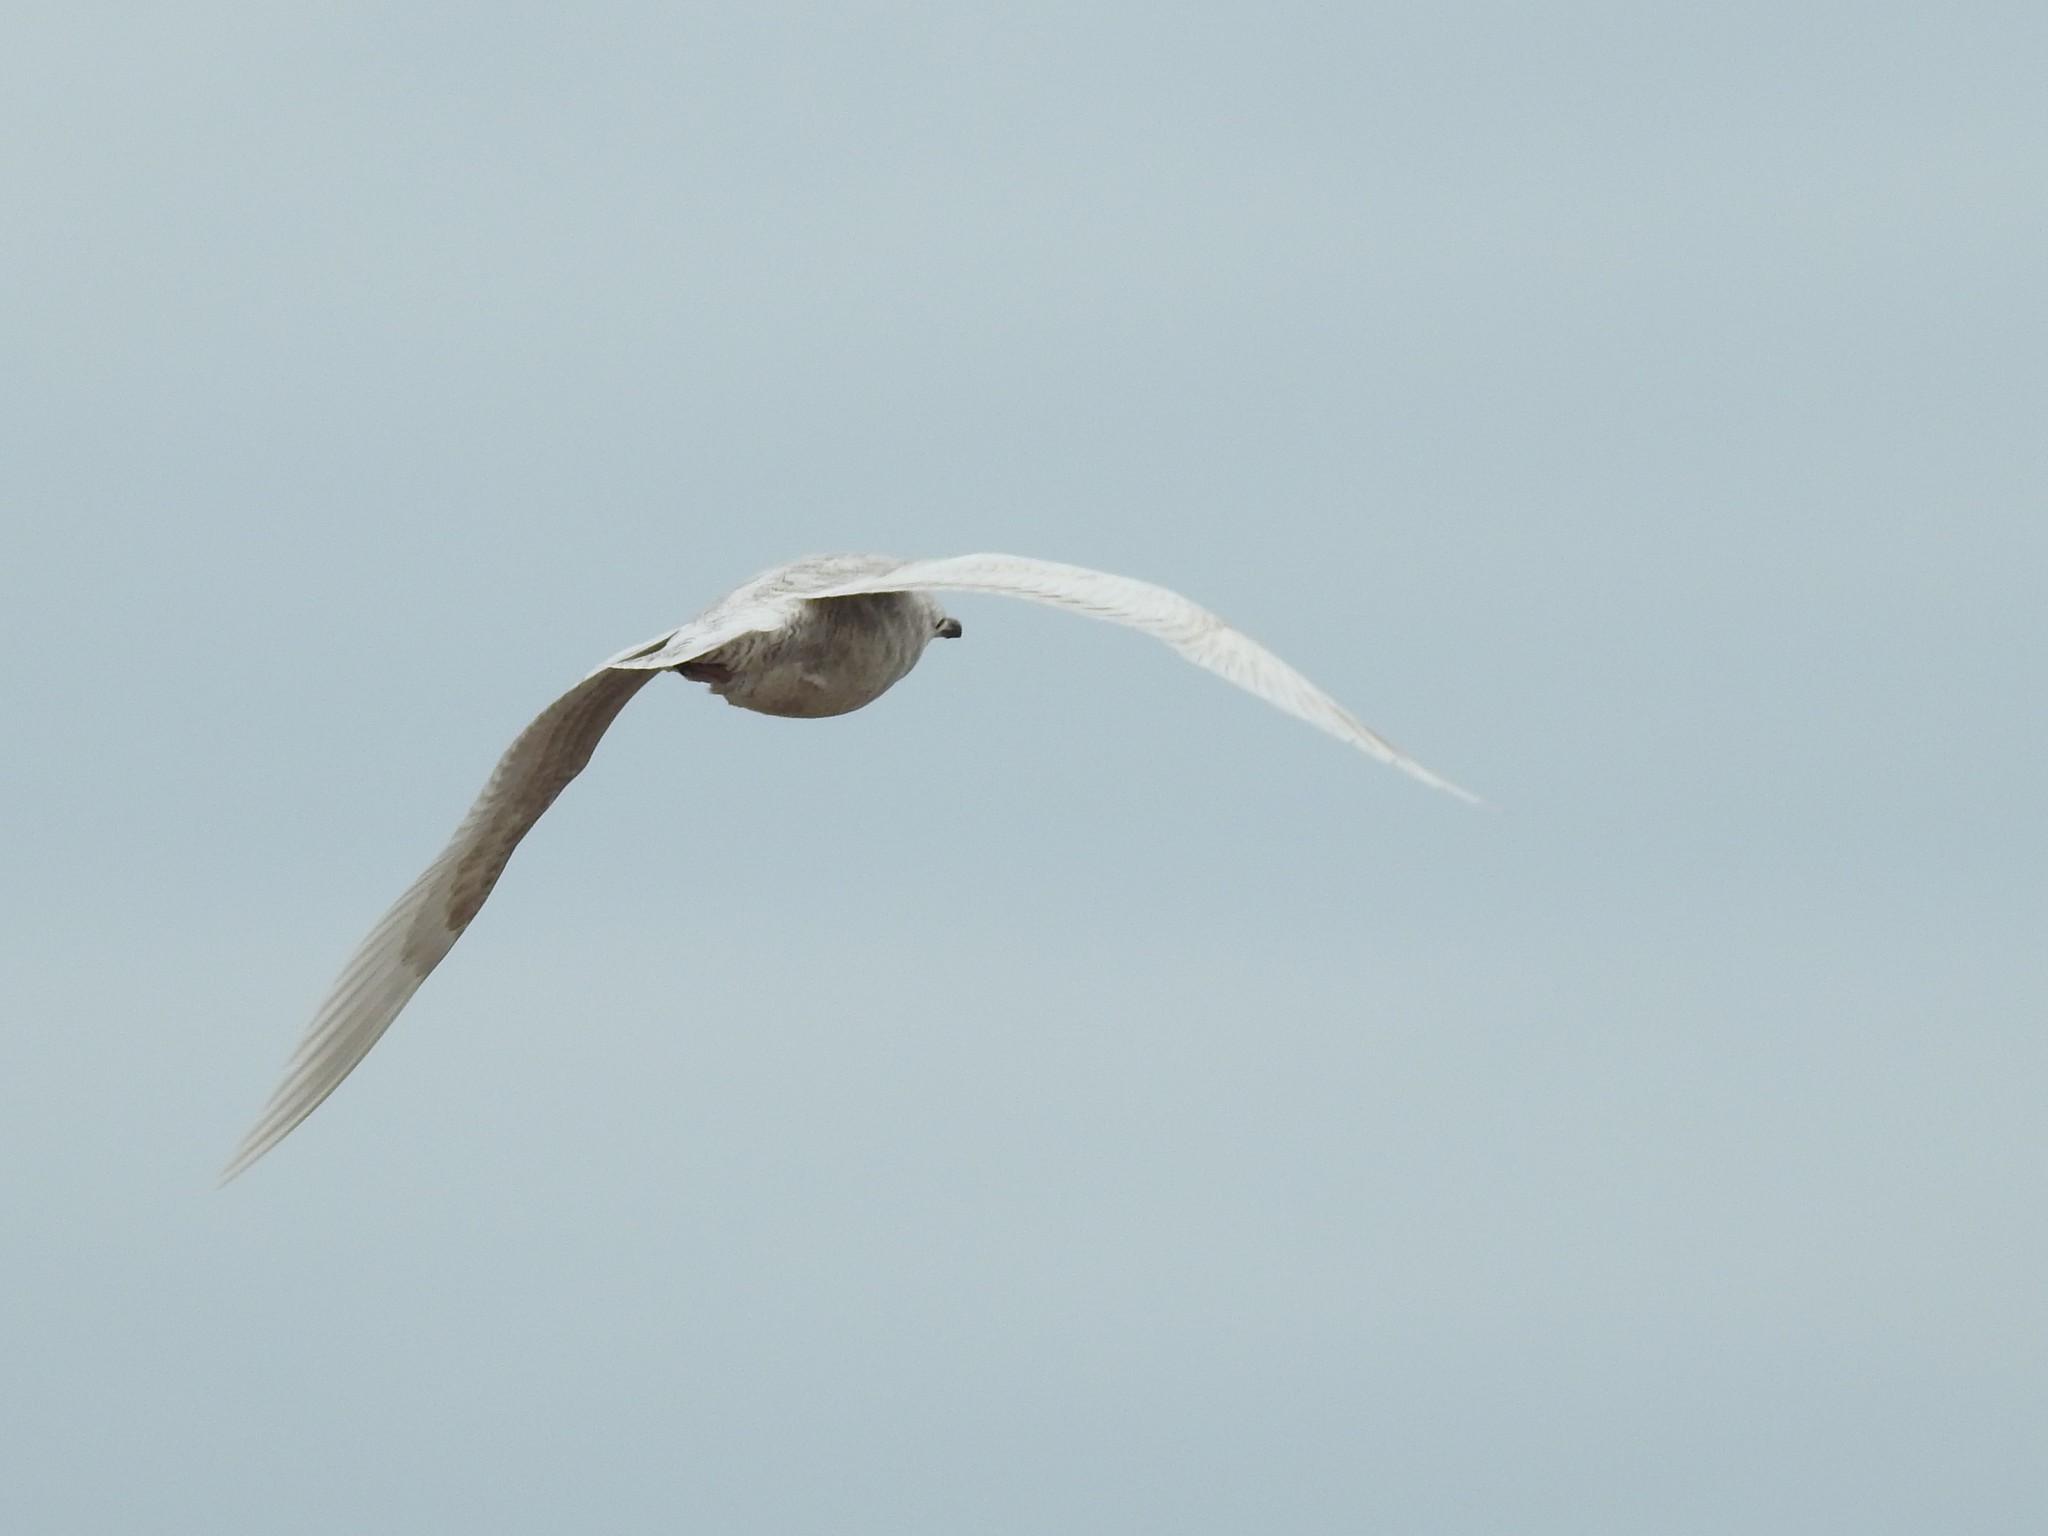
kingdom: Animalia
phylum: Chordata
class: Aves
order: Charadriiformes
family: Laridae
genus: Larus
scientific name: Larus glaucoides
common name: Iceland gull
